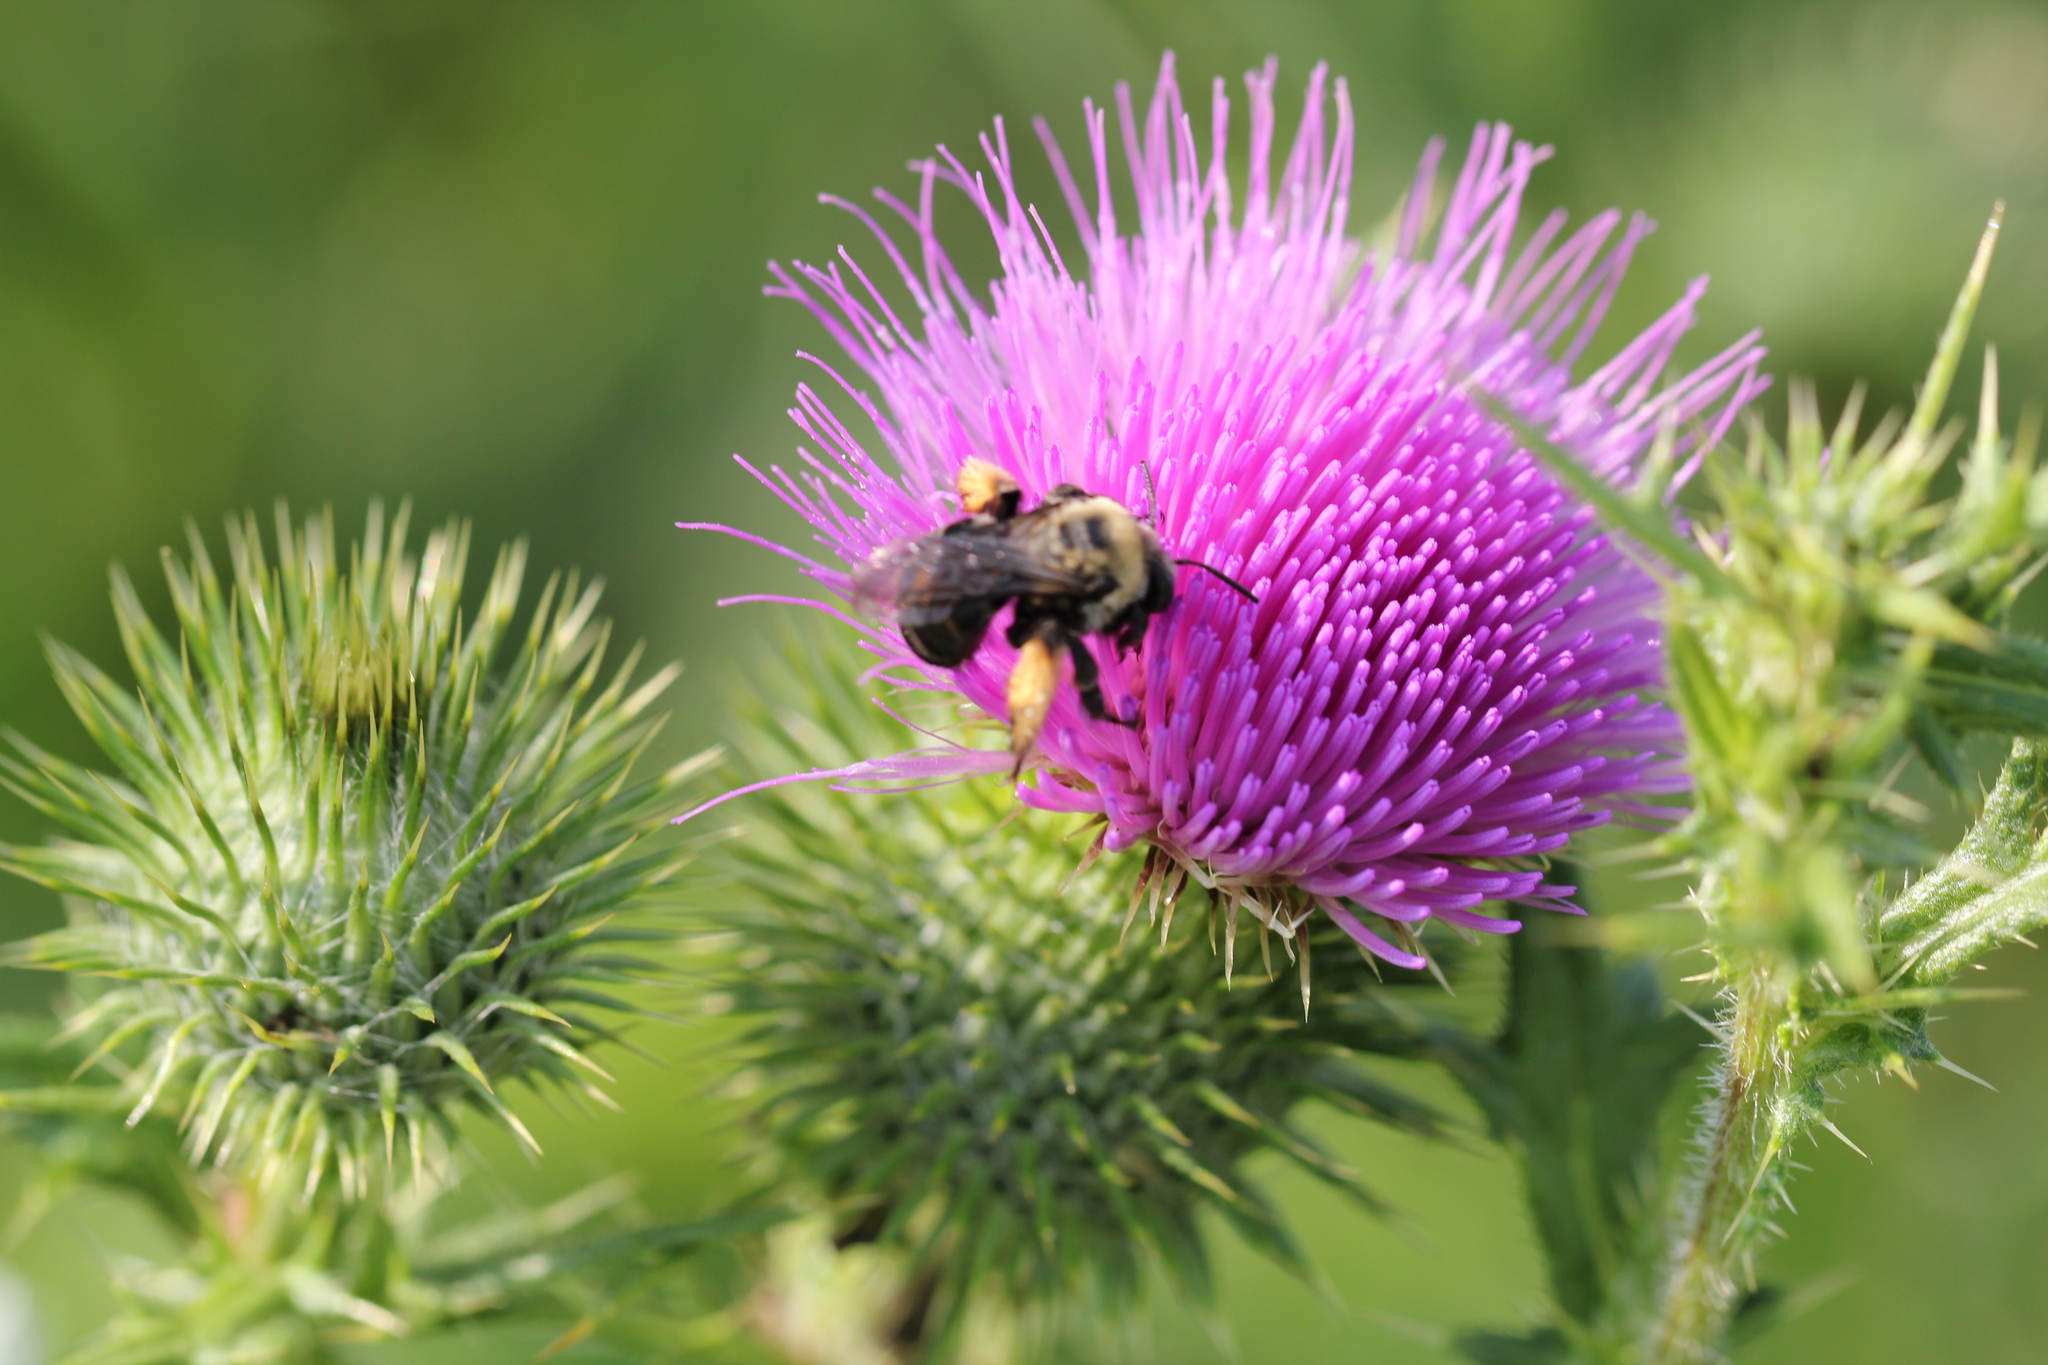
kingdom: Animalia
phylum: Arthropoda
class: Insecta
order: Hymenoptera
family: Apidae
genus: Melissodes
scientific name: Melissodes desponsus
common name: Thistle long-horned bee
